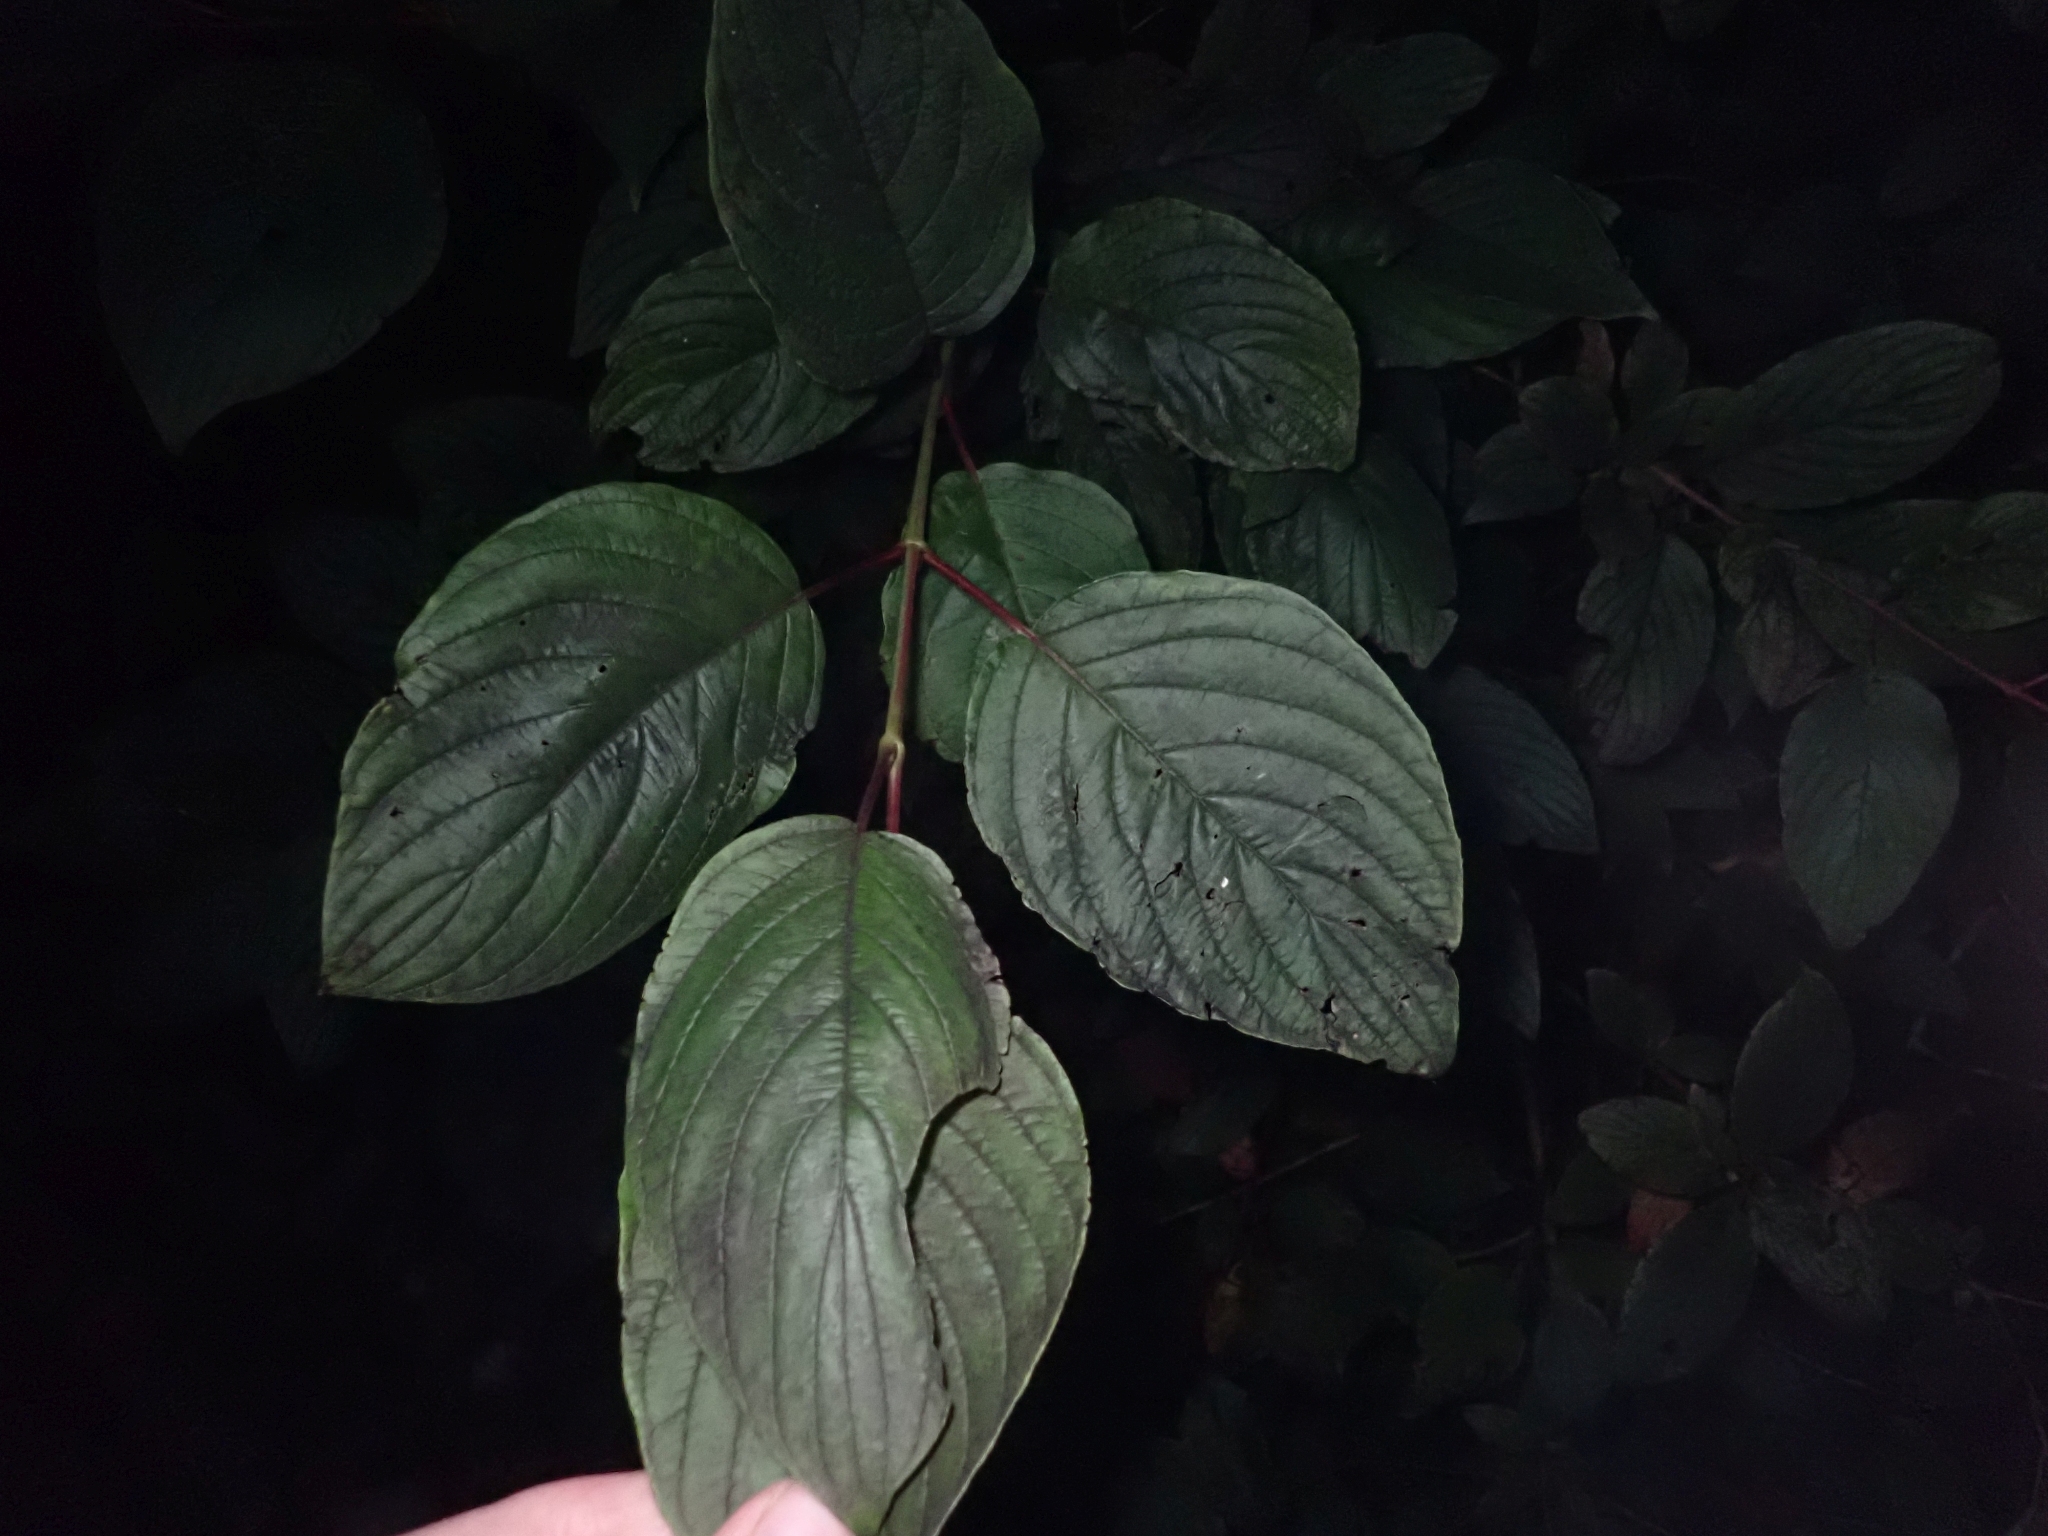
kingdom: Plantae
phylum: Tracheophyta
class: Magnoliopsida
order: Cornales
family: Cornaceae
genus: Cornus
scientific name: Cornus sericea
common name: Red-osier dogwood
